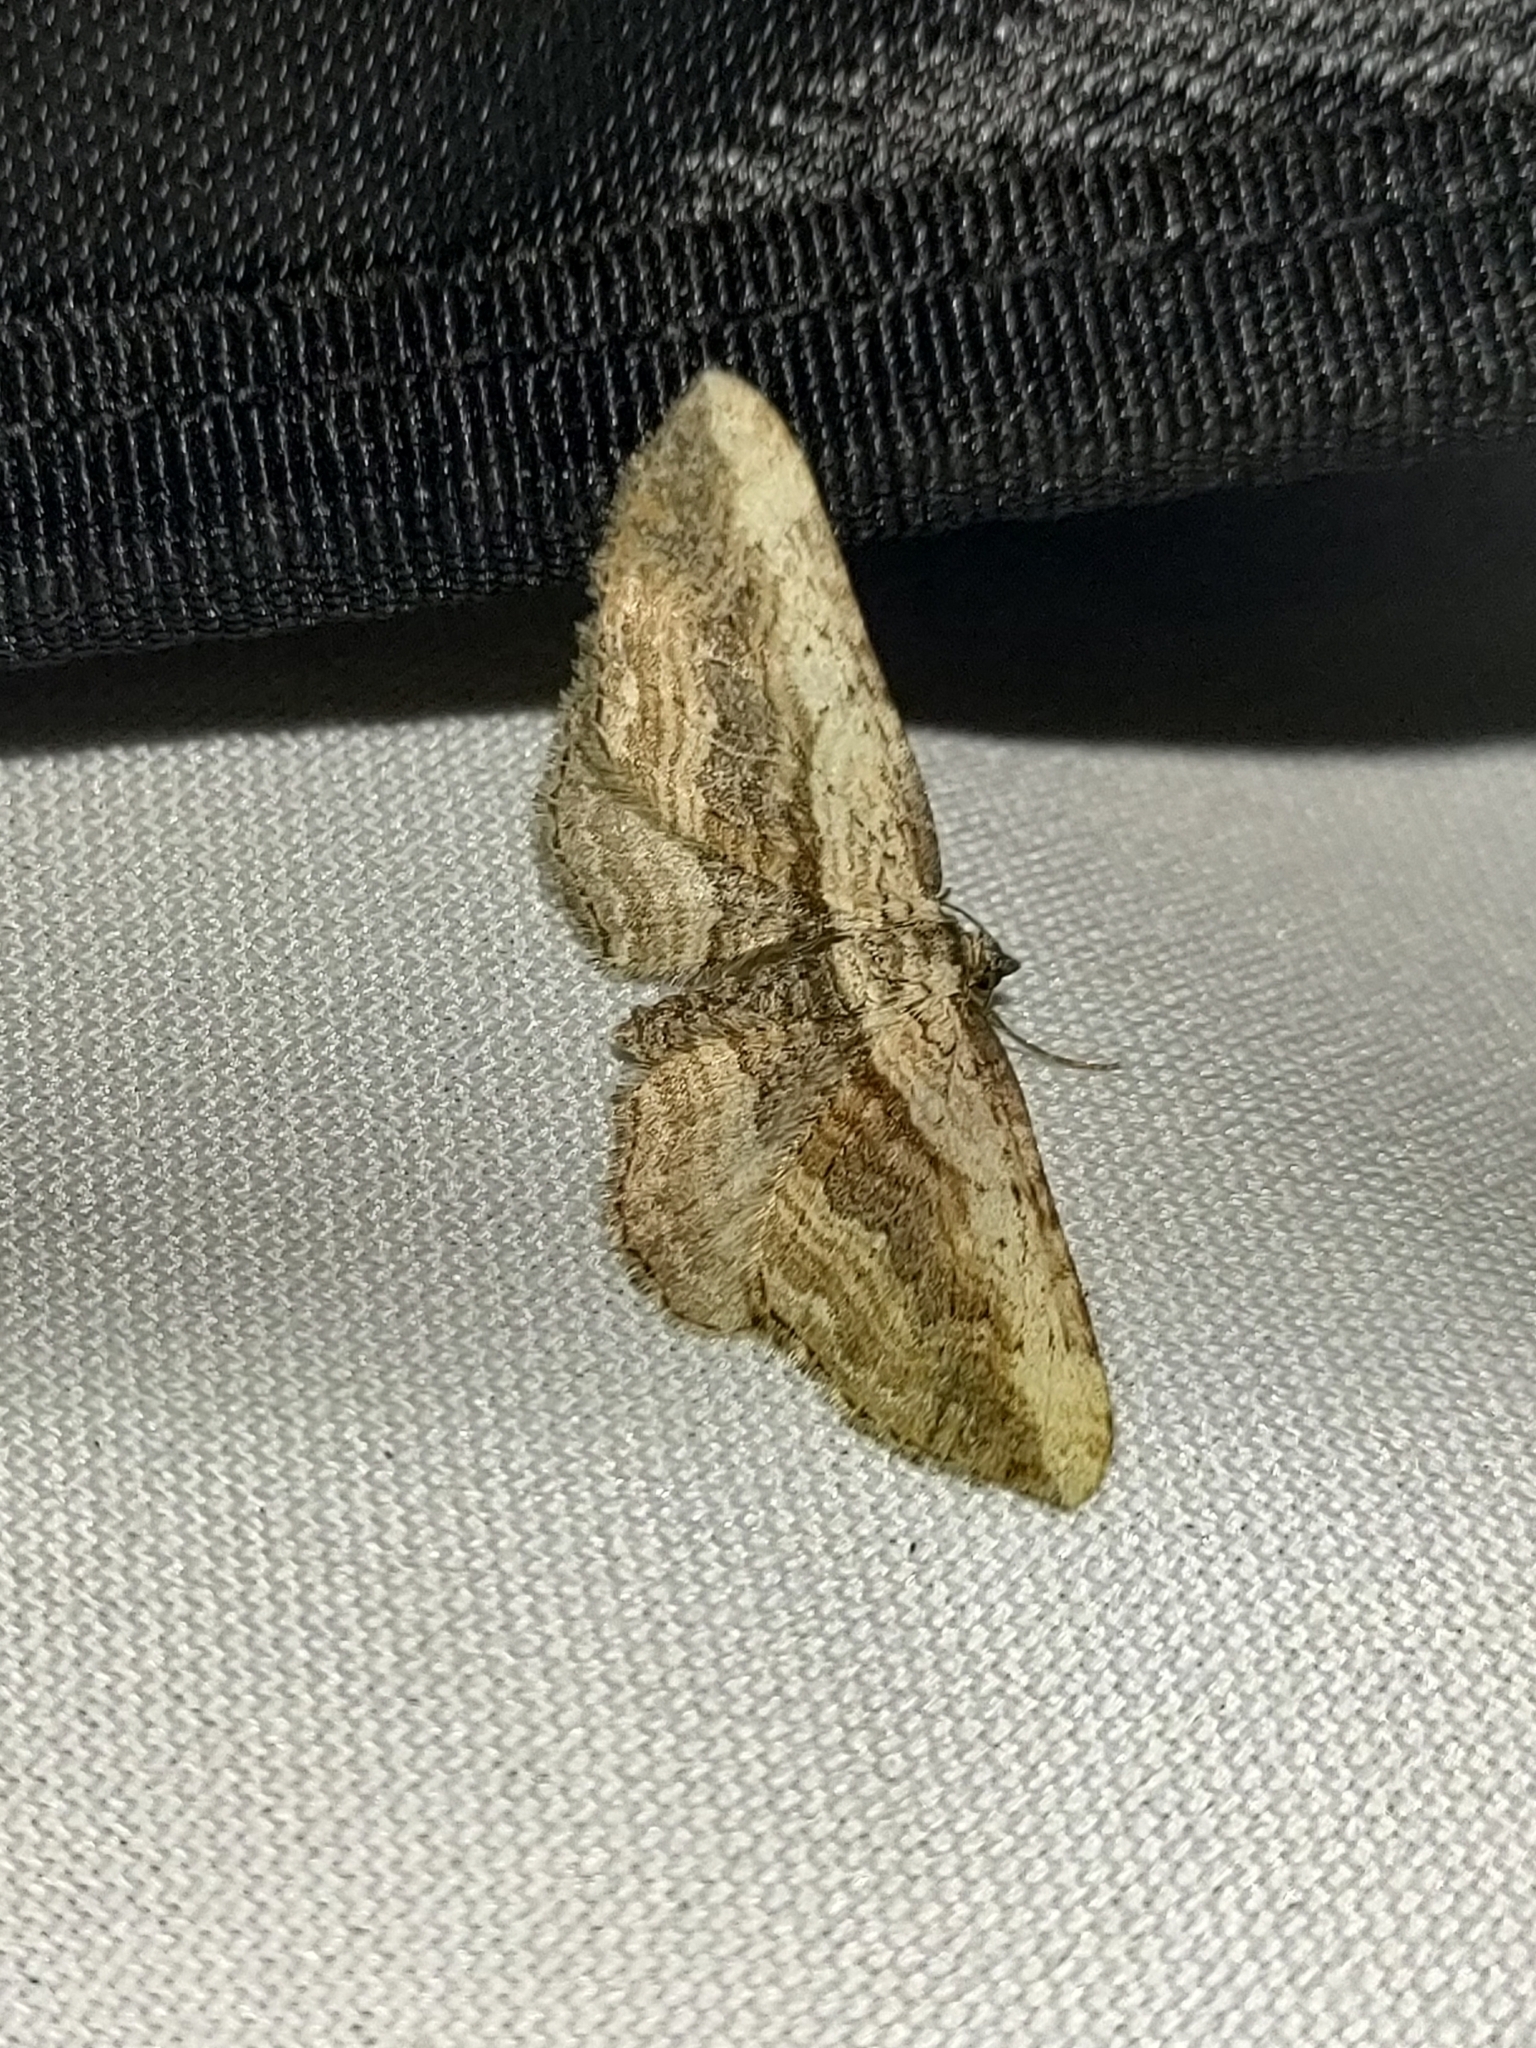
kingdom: Animalia
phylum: Arthropoda
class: Insecta
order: Lepidoptera
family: Geometridae
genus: Horisme
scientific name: Horisme vitalbata
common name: Small waved umber
